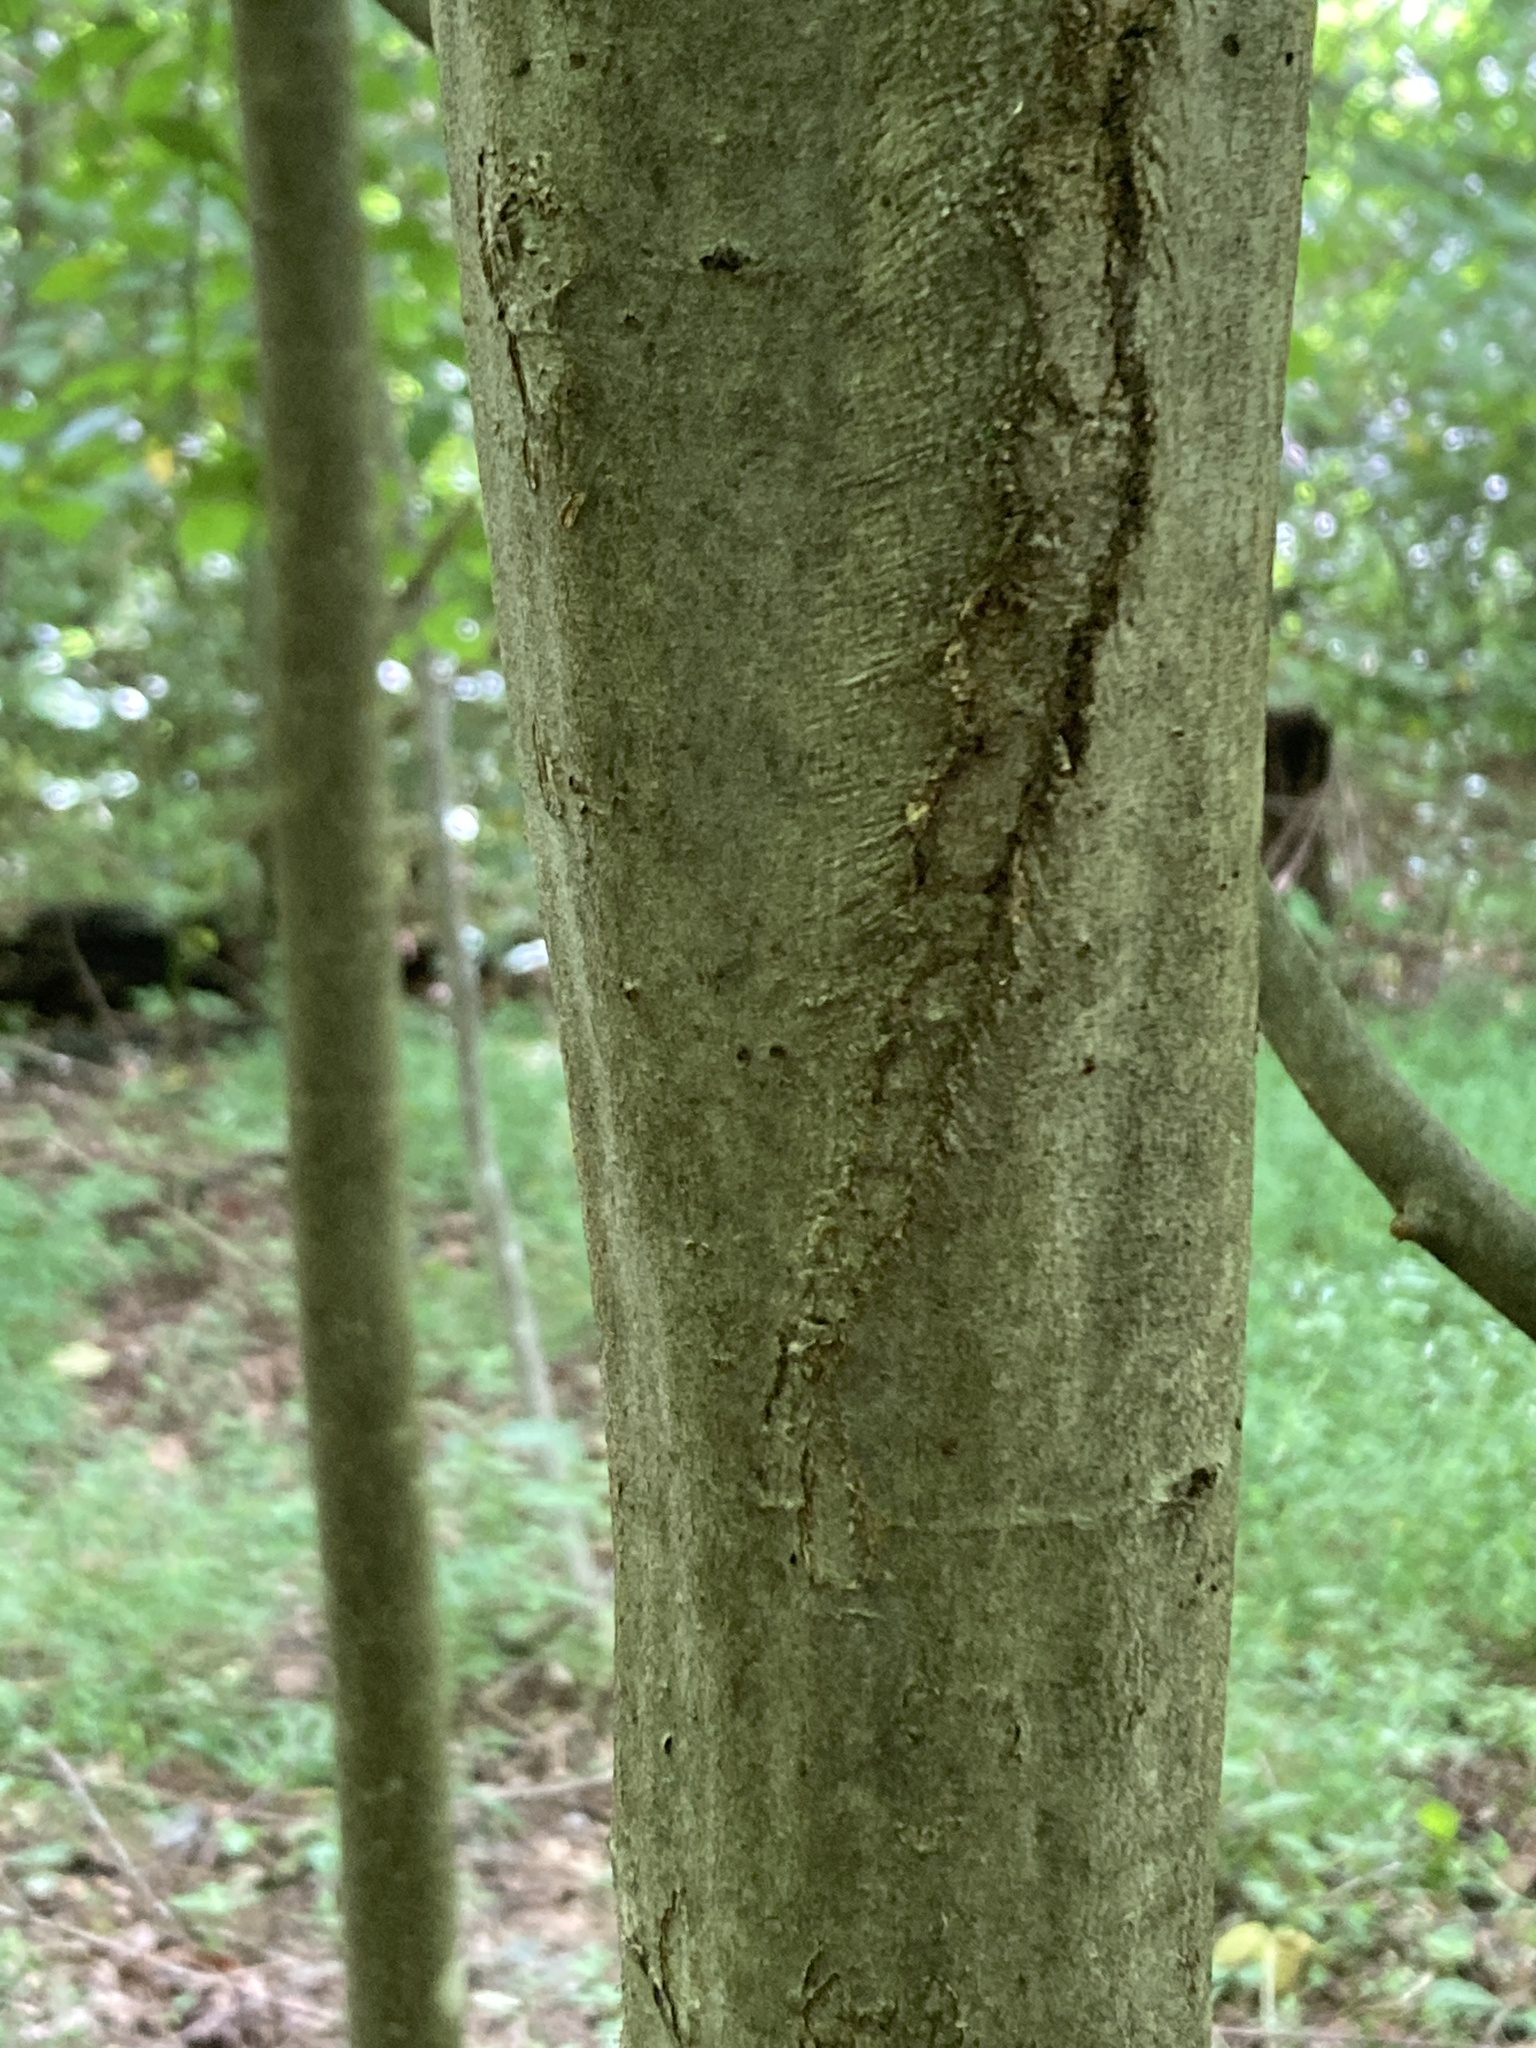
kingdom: Plantae
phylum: Tracheophyta
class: Magnoliopsida
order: Fagales
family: Betulaceae
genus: Carpinus
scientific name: Carpinus caroliniana
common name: American hornbeam
